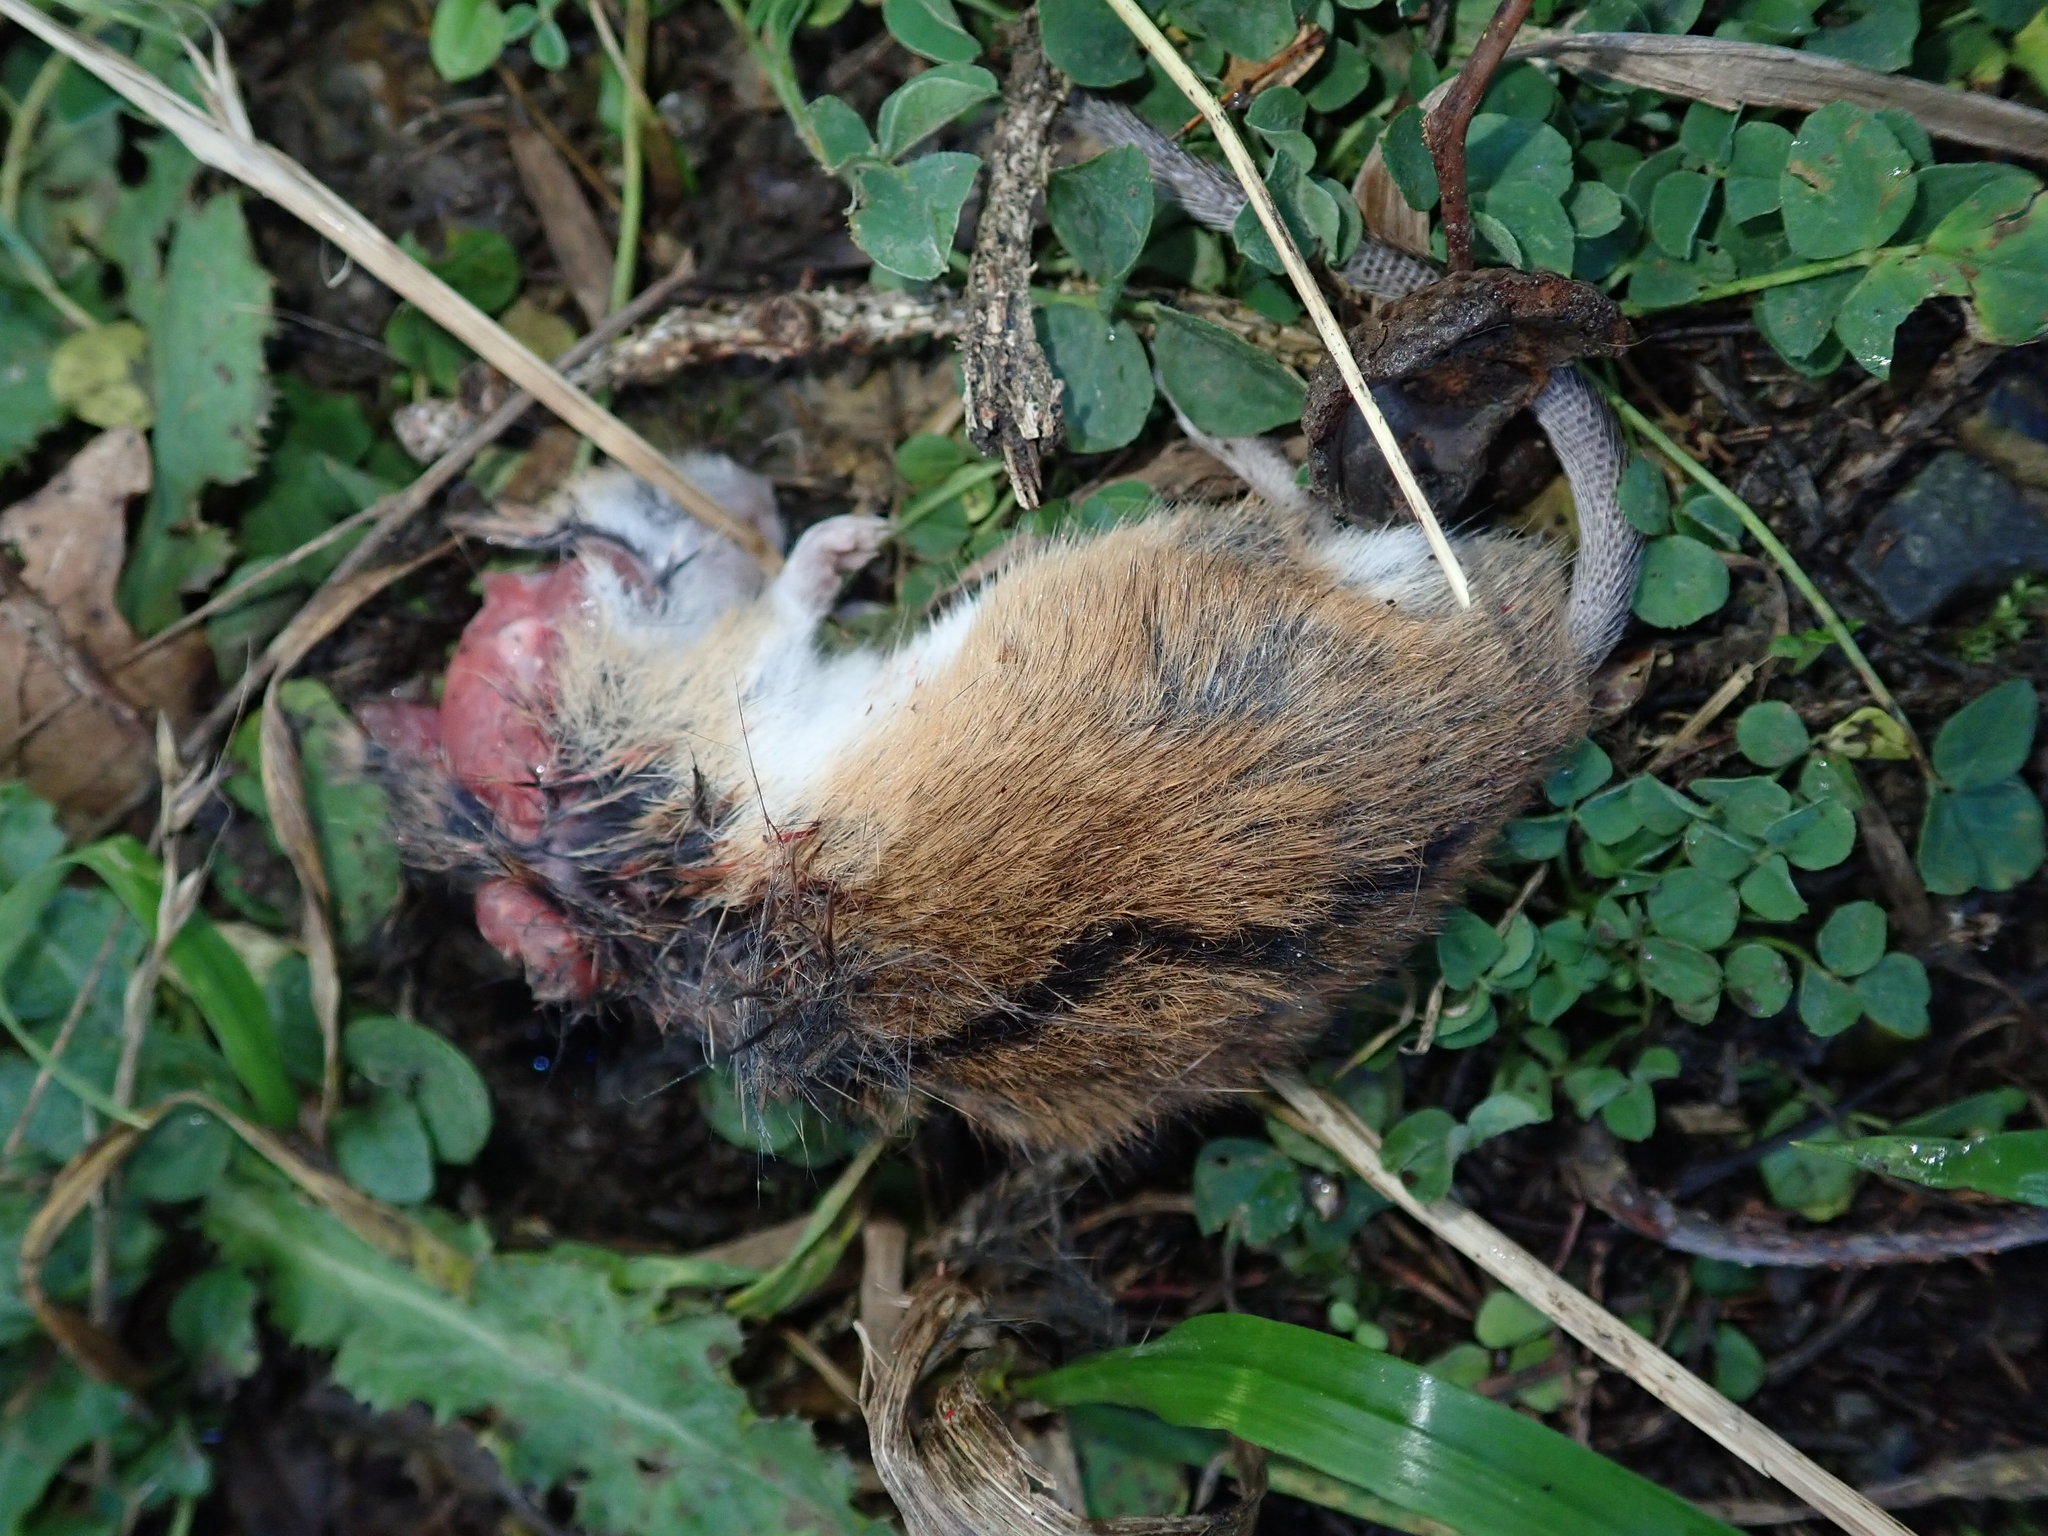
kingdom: Animalia
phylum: Chordata
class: Mammalia
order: Rodentia
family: Muridae
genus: Apodemus
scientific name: Apodemus agrarius
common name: Striped field mouse
